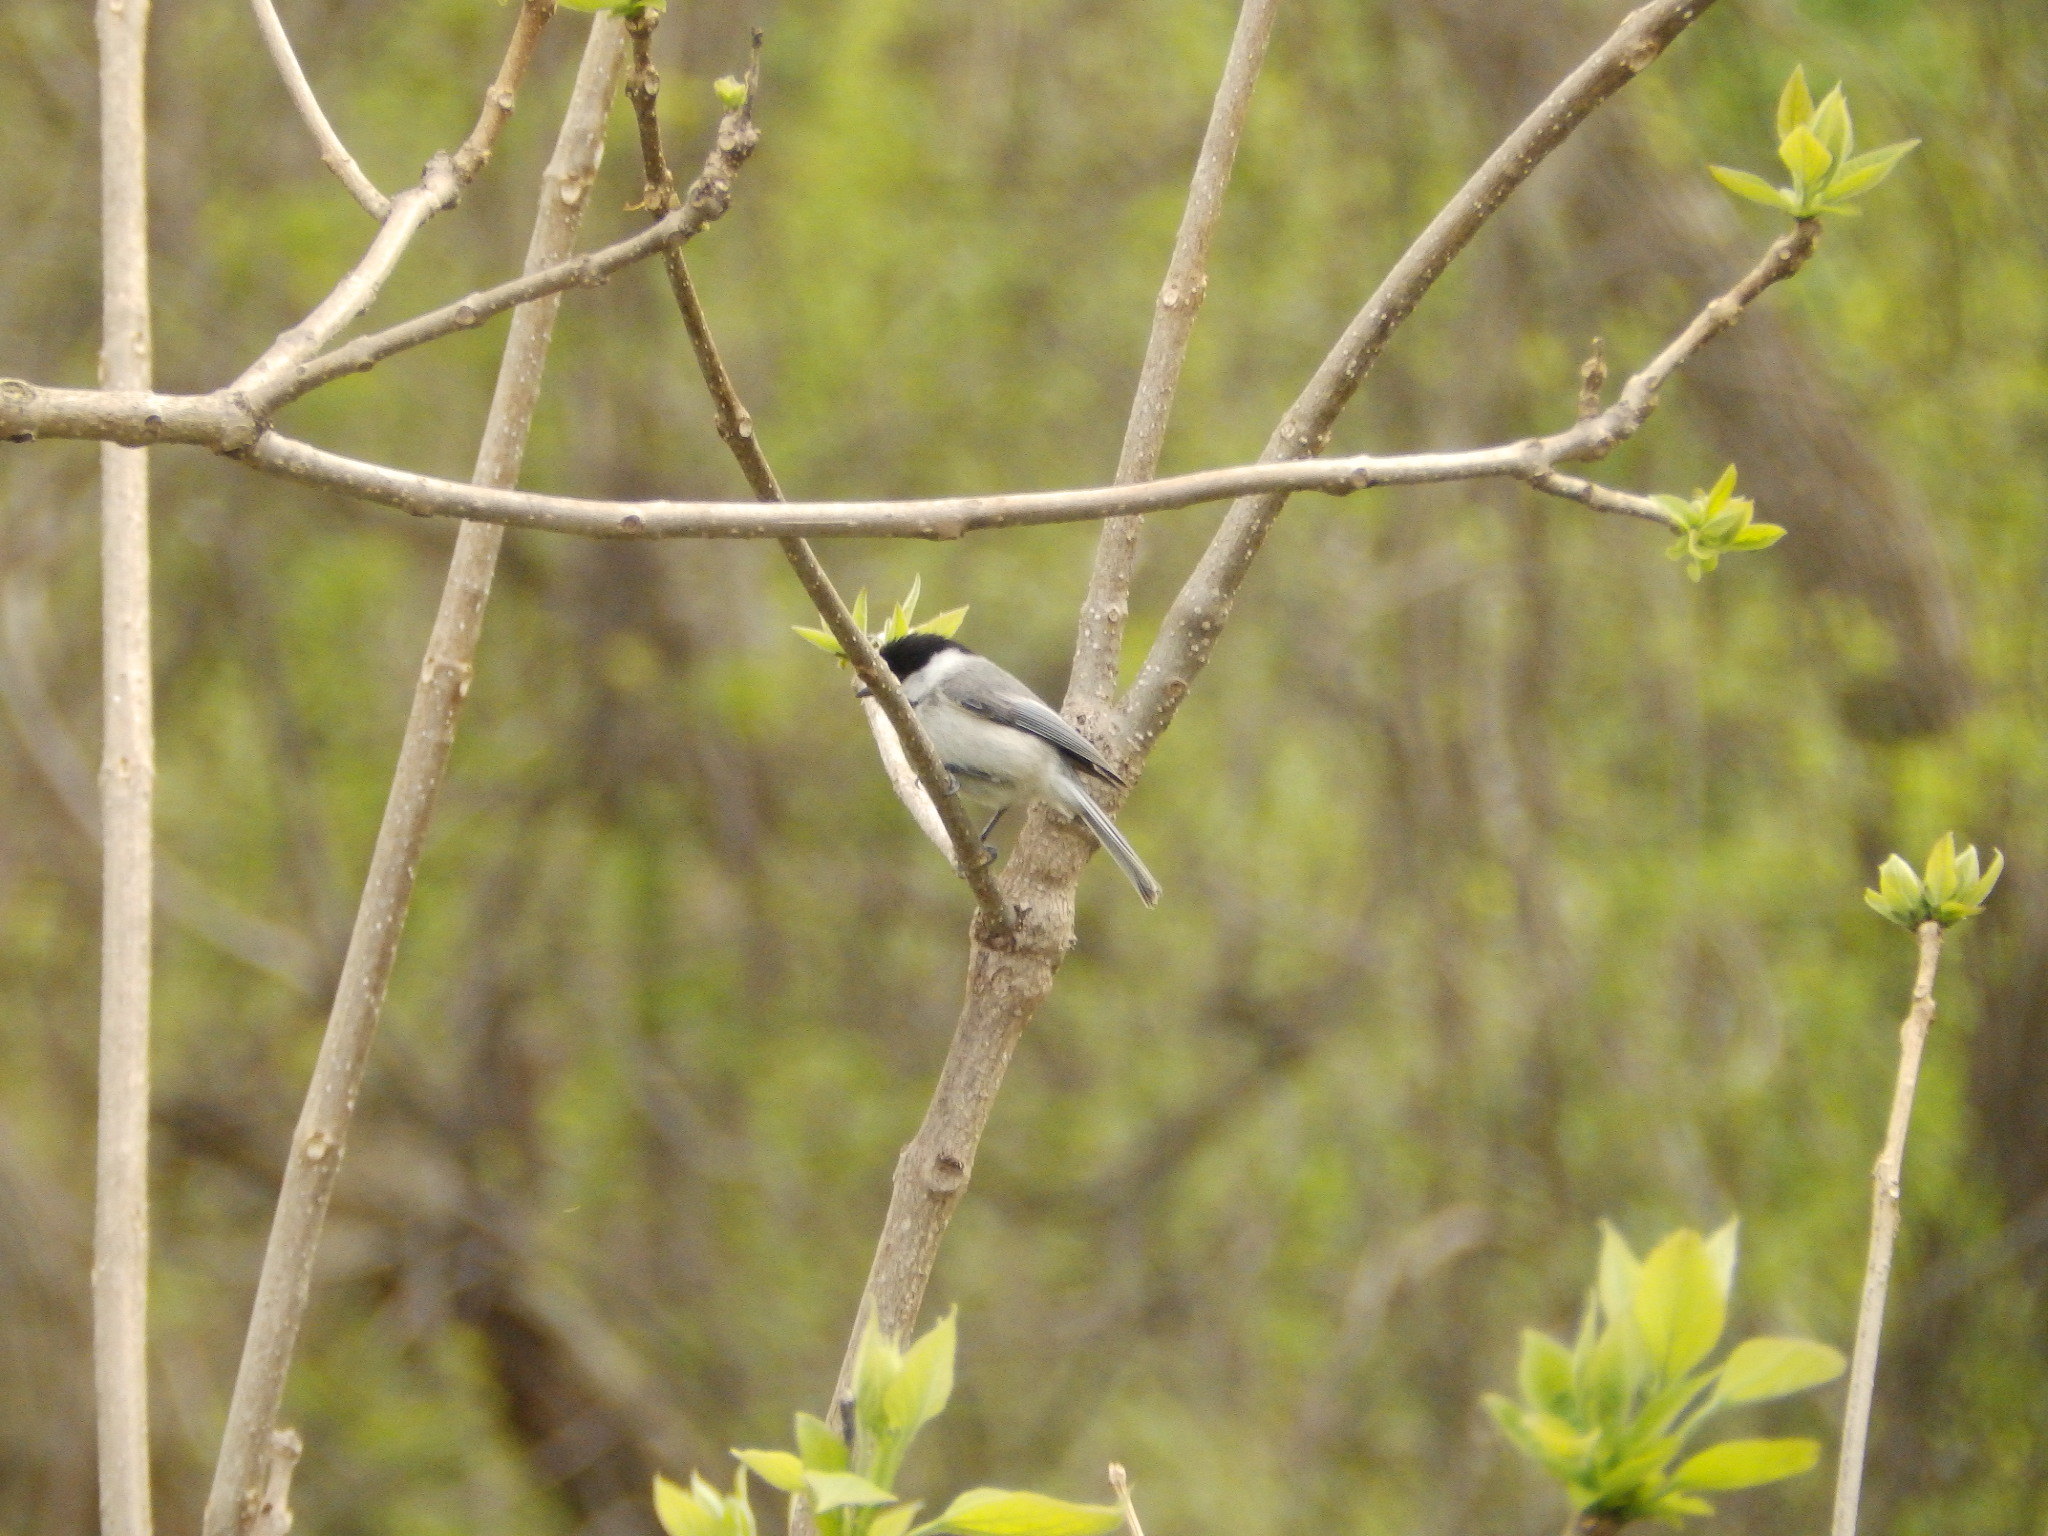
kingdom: Animalia
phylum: Chordata
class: Aves
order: Passeriformes
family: Paridae
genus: Poecile
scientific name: Poecile carolinensis
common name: Carolina chickadee
